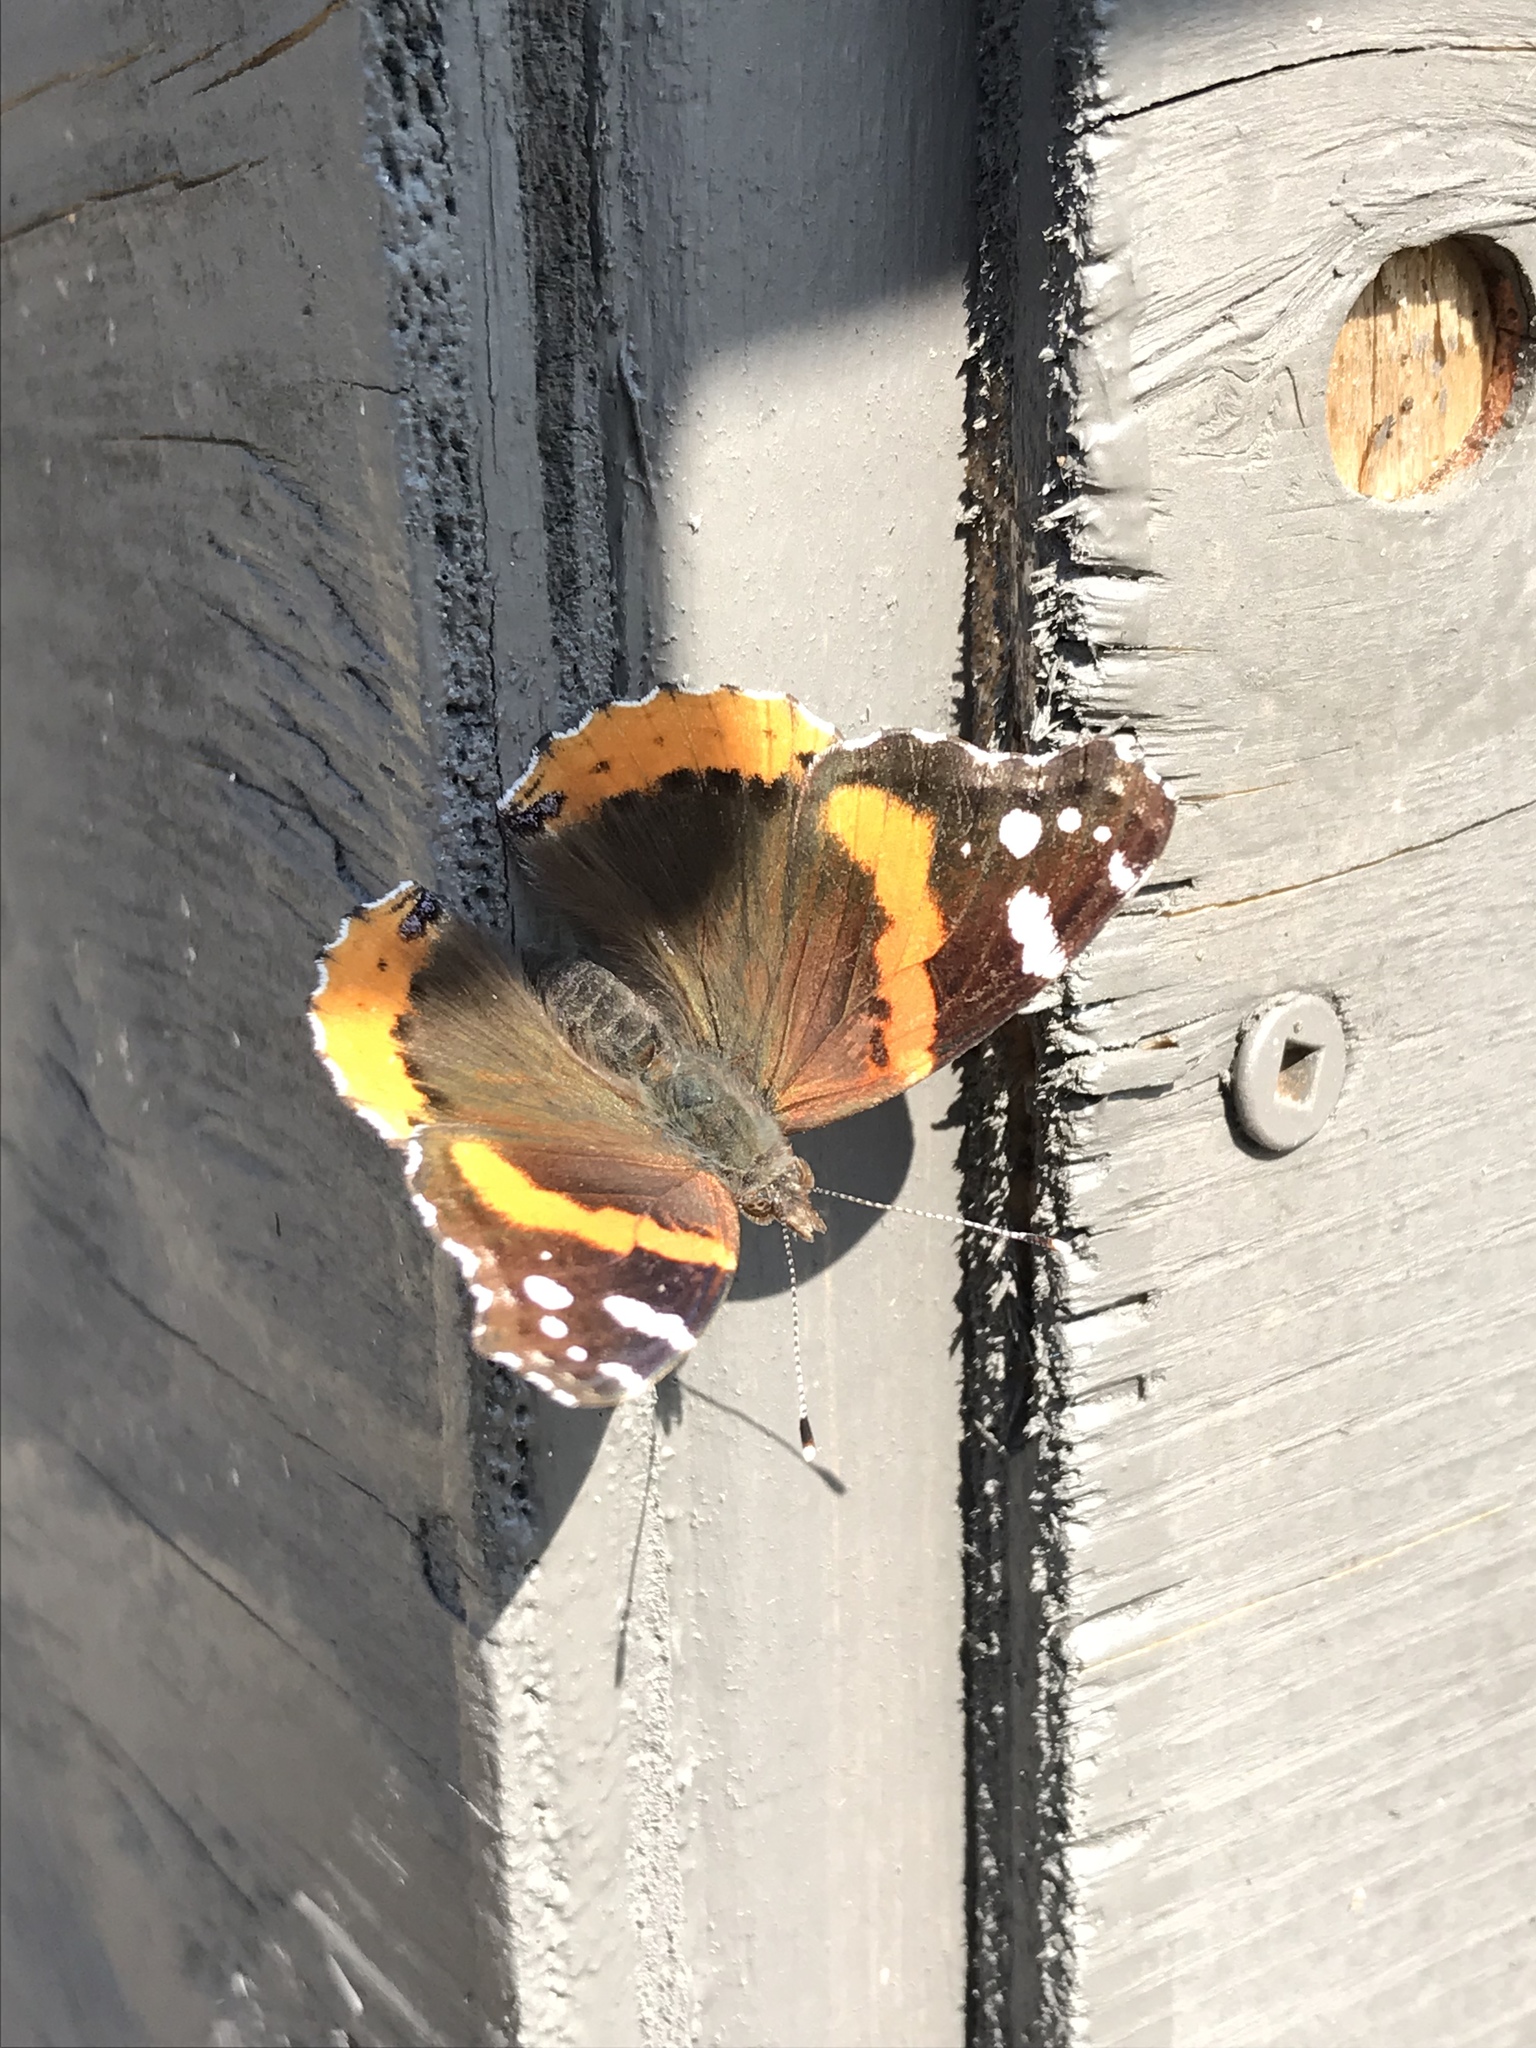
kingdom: Animalia
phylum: Arthropoda
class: Insecta
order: Lepidoptera
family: Nymphalidae
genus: Vanessa
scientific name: Vanessa atalanta
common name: Red admiral
